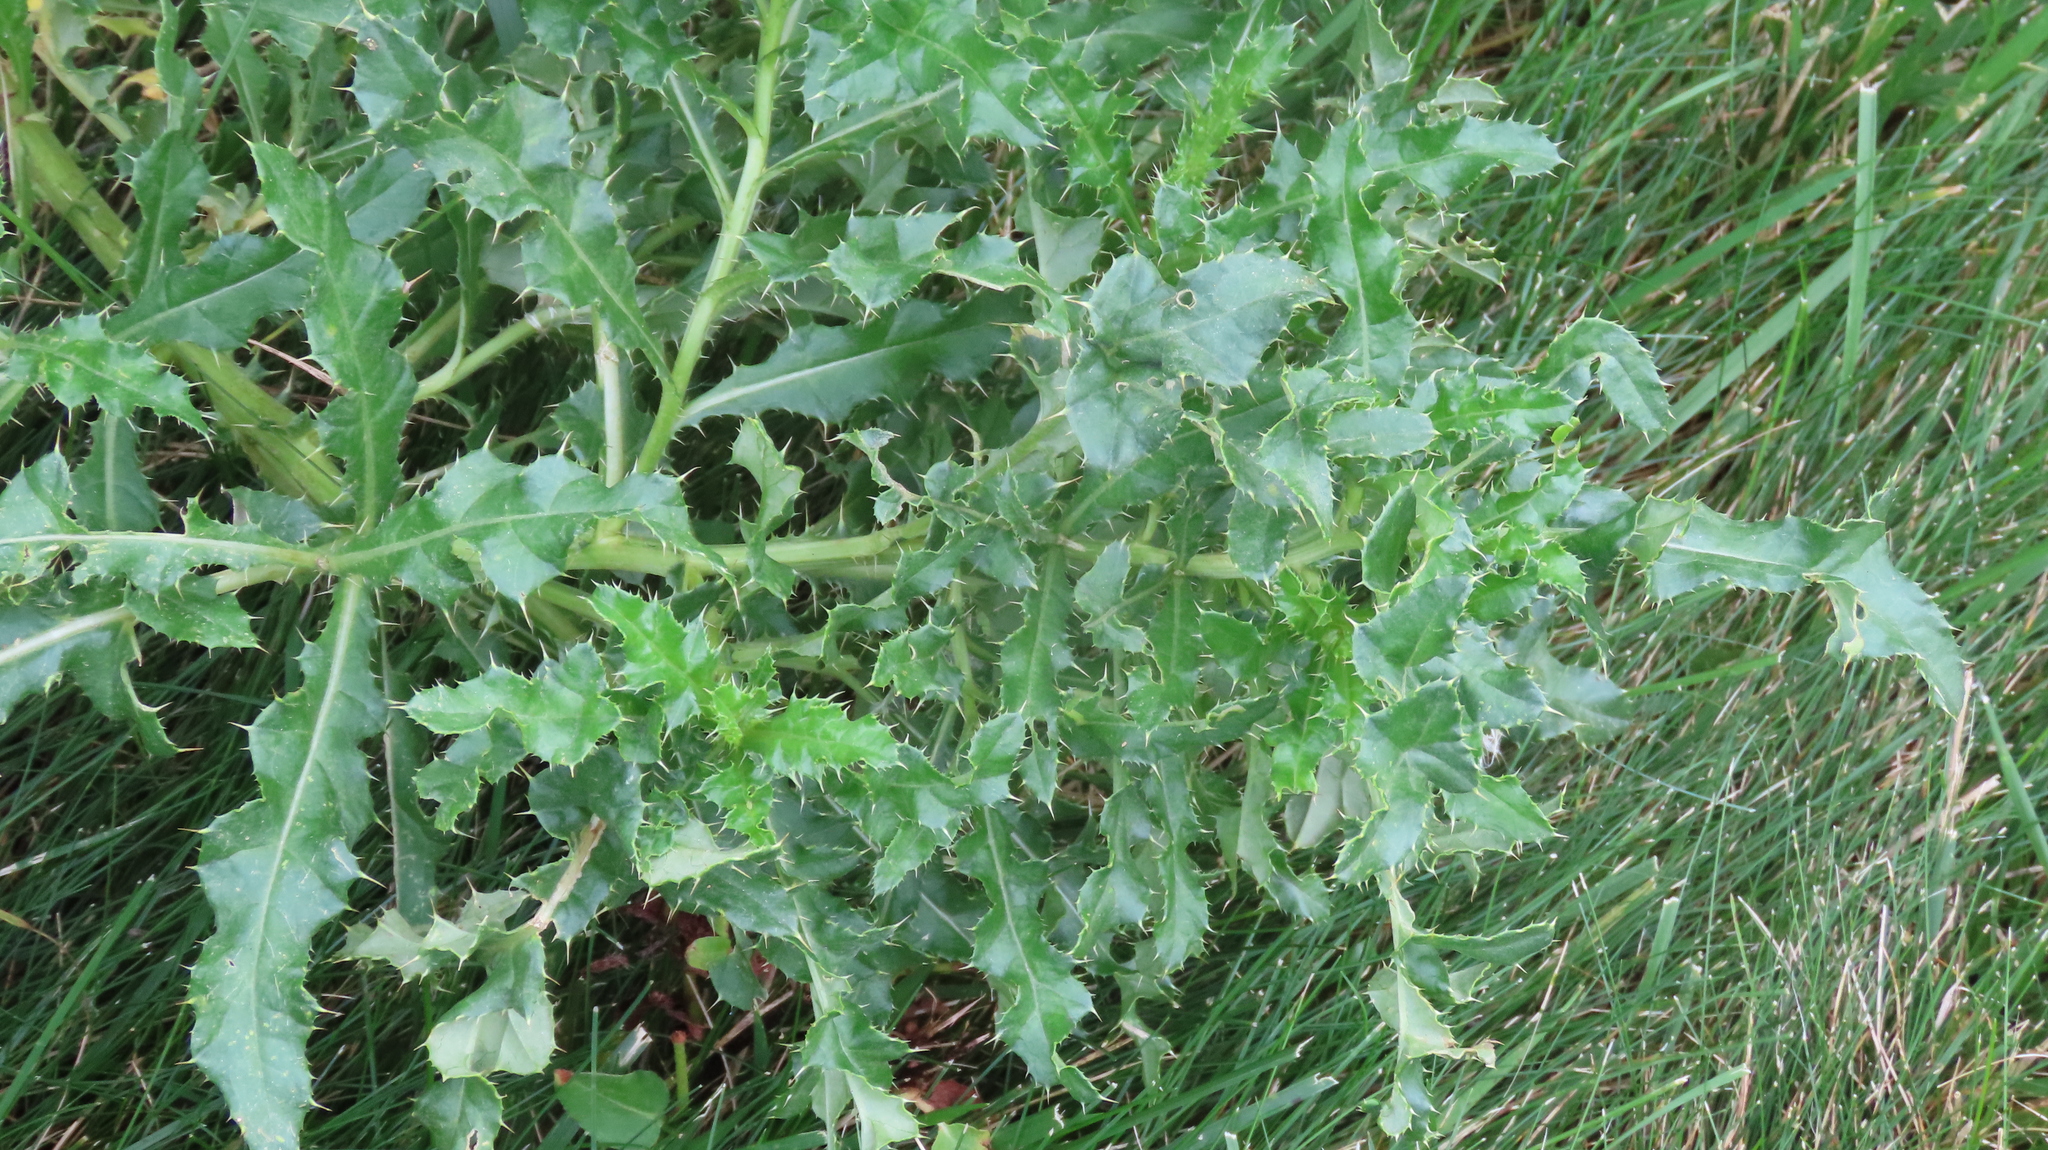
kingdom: Plantae
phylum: Tracheophyta
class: Magnoliopsida
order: Asterales
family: Asteraceae
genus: Cirsium
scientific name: Cirsium arvense
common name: Creeping thistle
